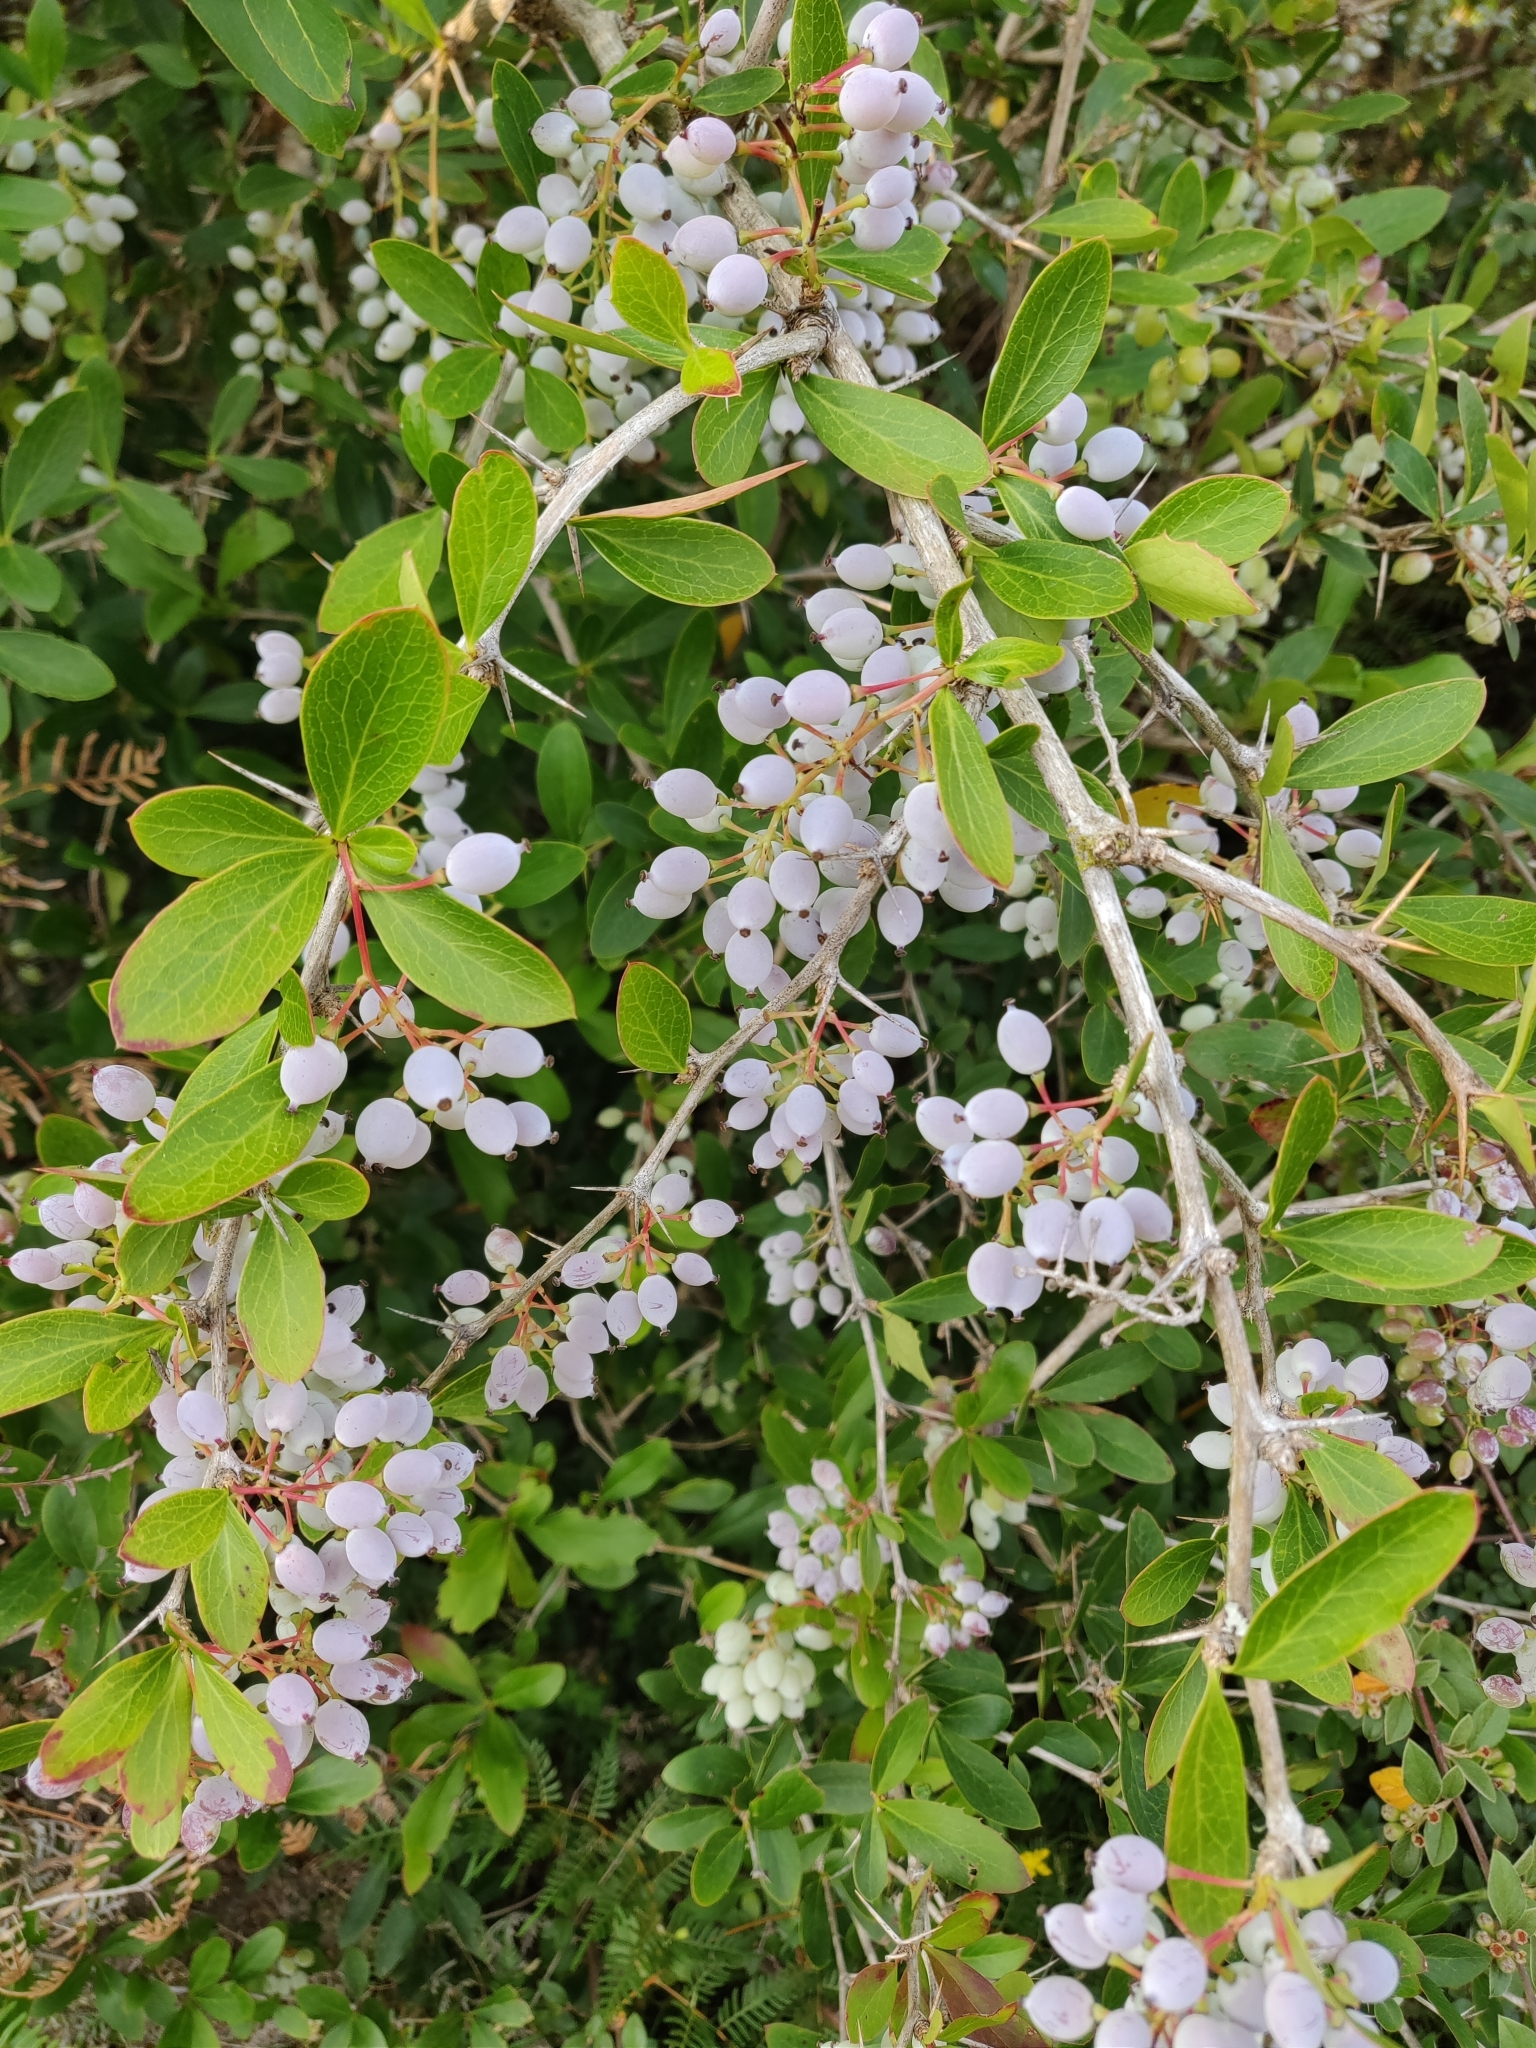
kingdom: Plantae
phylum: Tracheophyta
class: Magnoliopsida
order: Ranunculales
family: Berberidaceae
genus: Berberis
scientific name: Berberis glaucocarpa
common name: Great barberry
